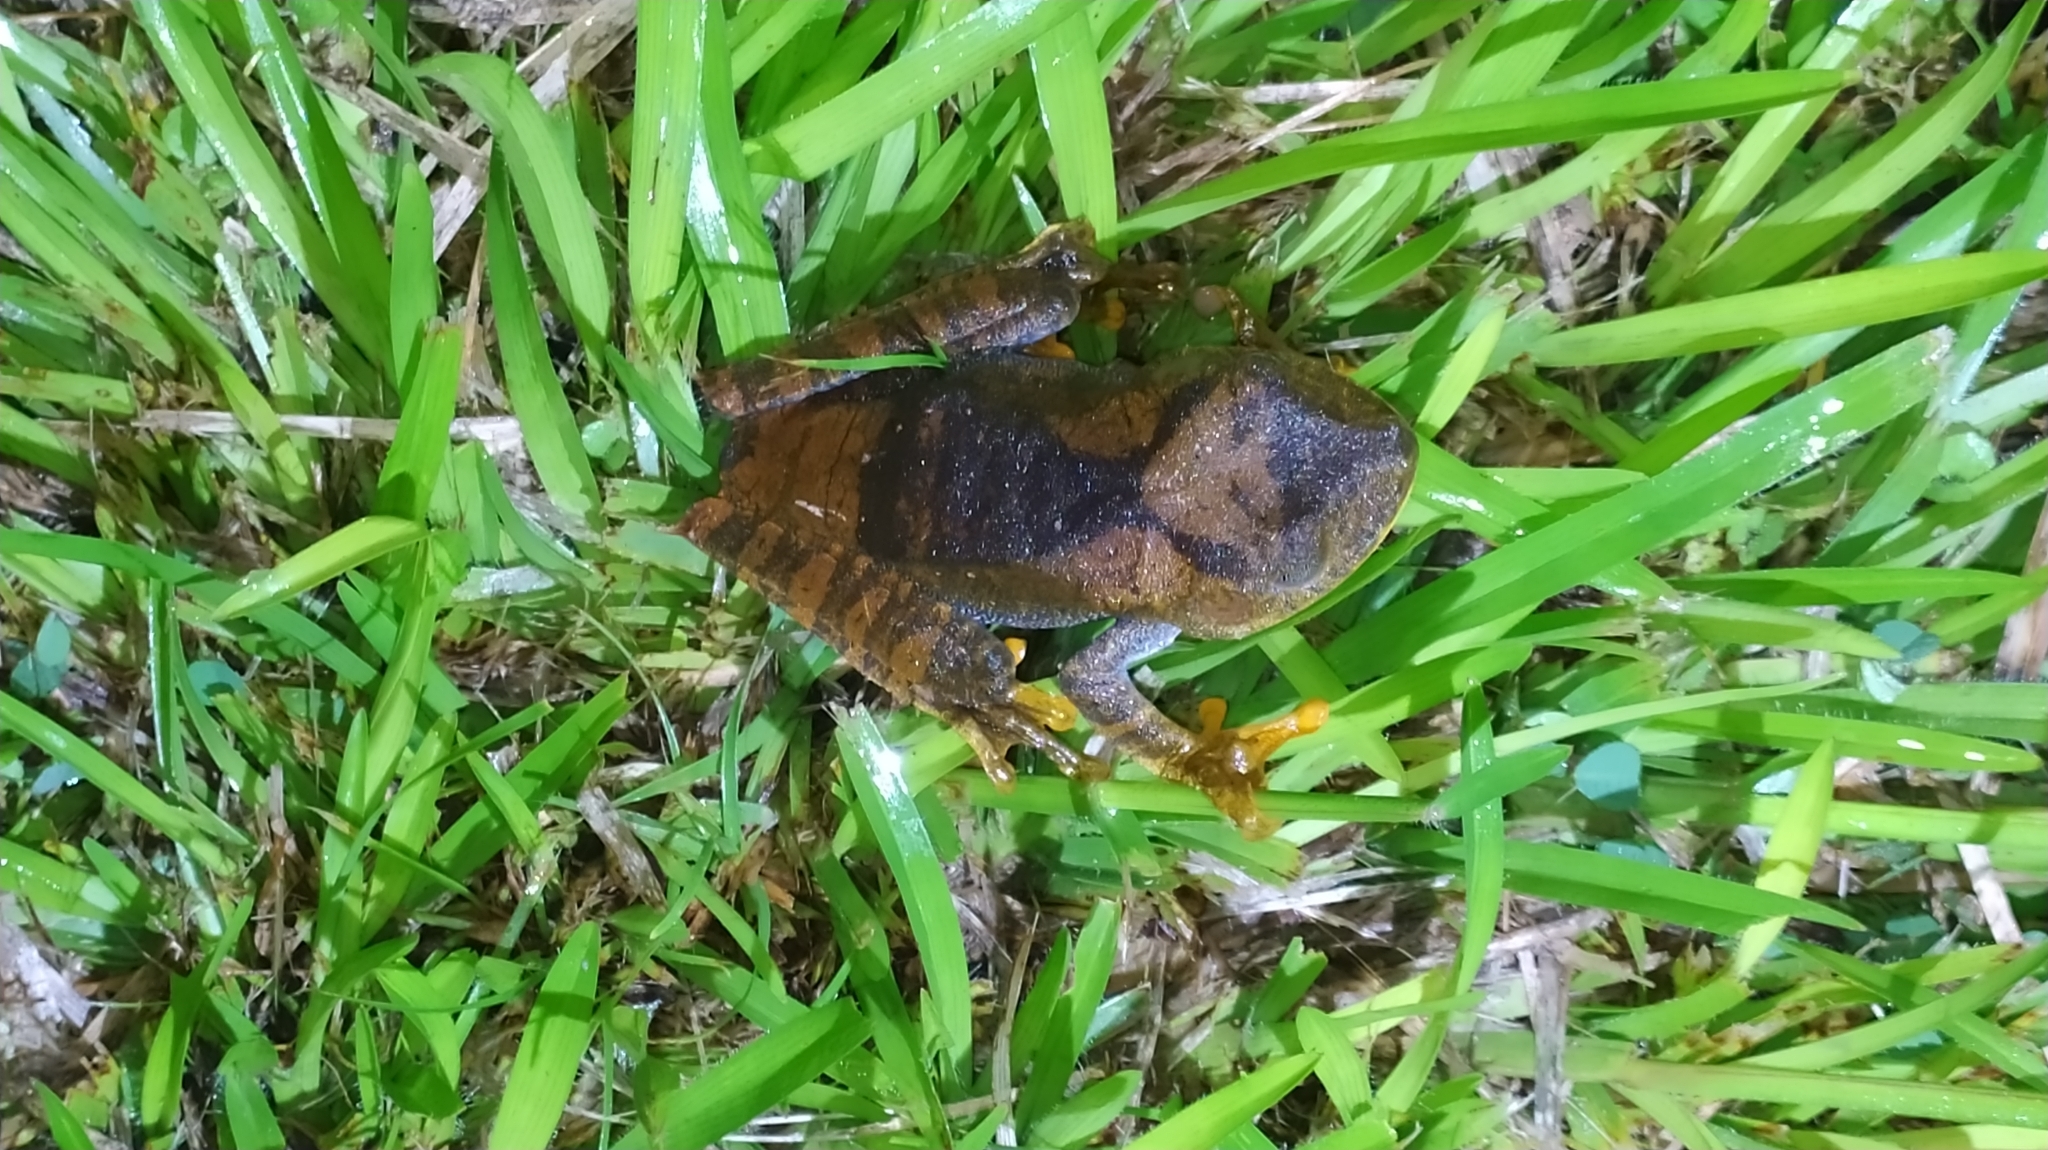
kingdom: Animalia
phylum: Chordata
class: Amphibia
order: Anura
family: Hylidae
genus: Boana
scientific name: Boana semilineata
